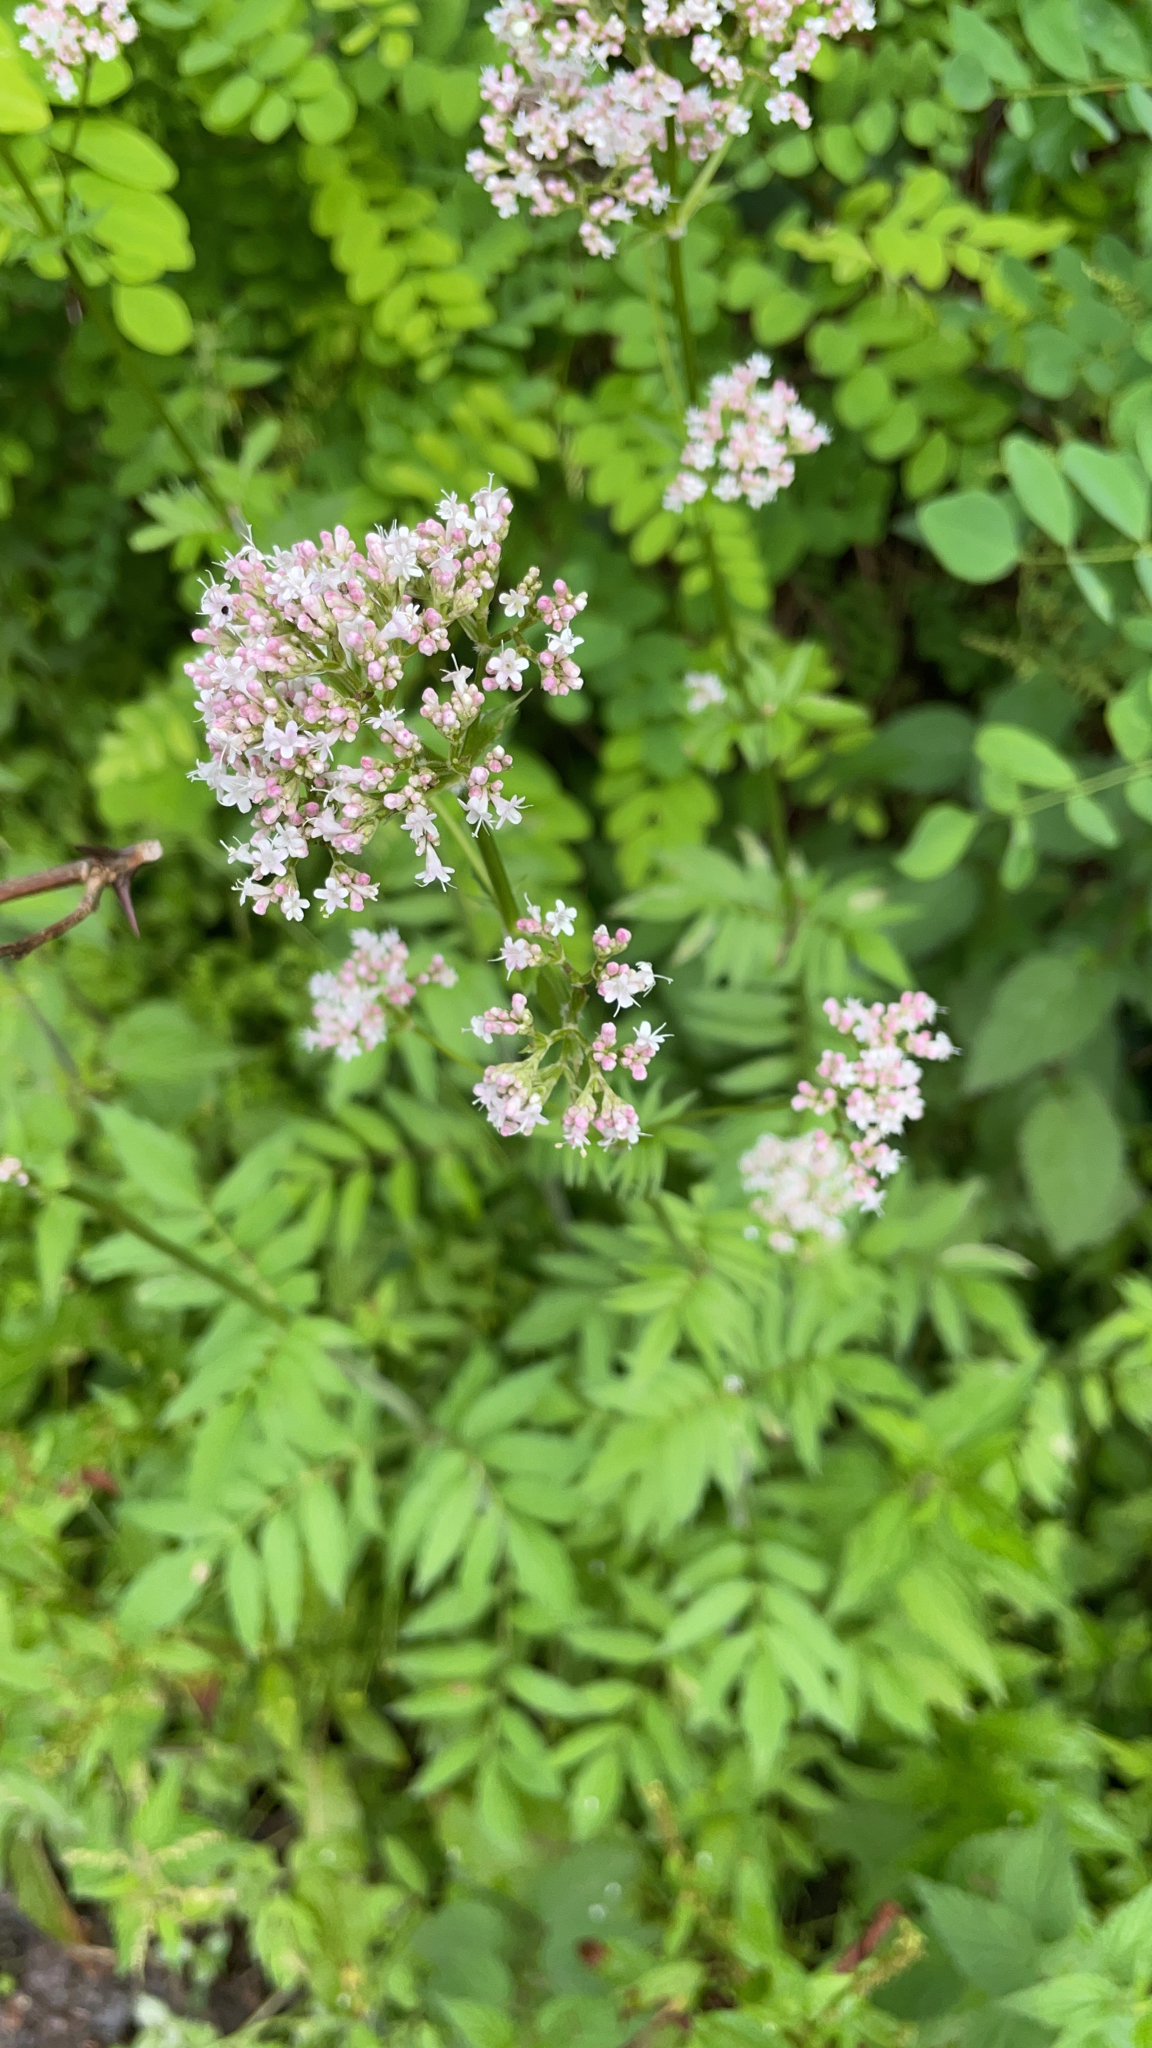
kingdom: Plantae
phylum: Tracheophyta
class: Magnoliopsida
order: Dipsacales
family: Caprifoliaceae
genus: Valeriana
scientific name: Valeriana officinalis
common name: Common valerian
